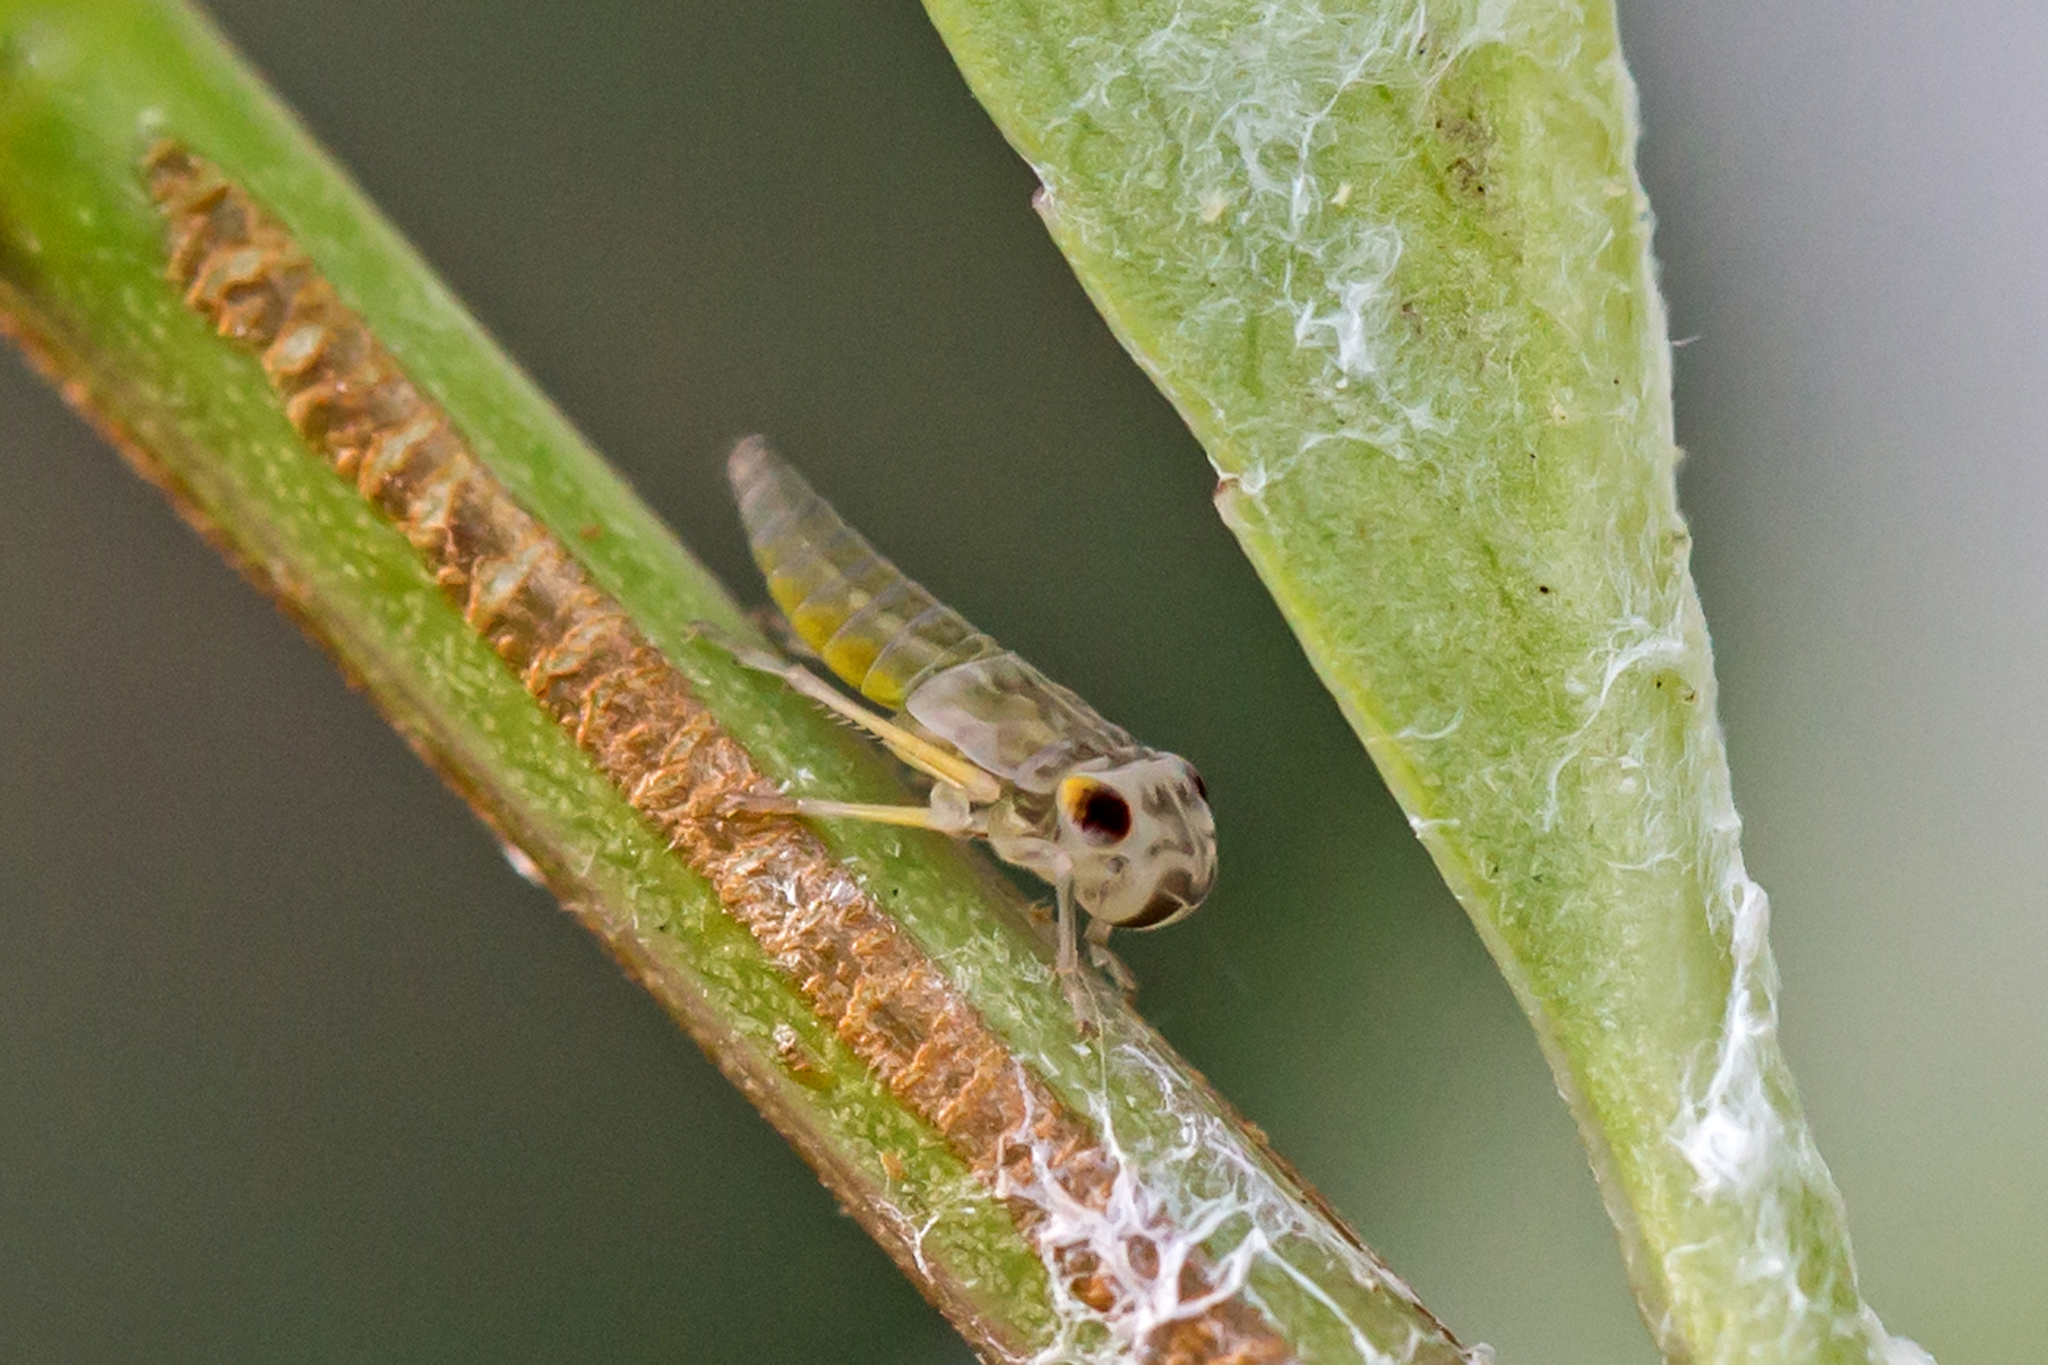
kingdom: Animalia
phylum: Arthropoda
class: Insecta
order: Hemiptera
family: Cicadellidae
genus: Oncometopia
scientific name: Oncometopia orbona
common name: Broad-headed sharpshooter
